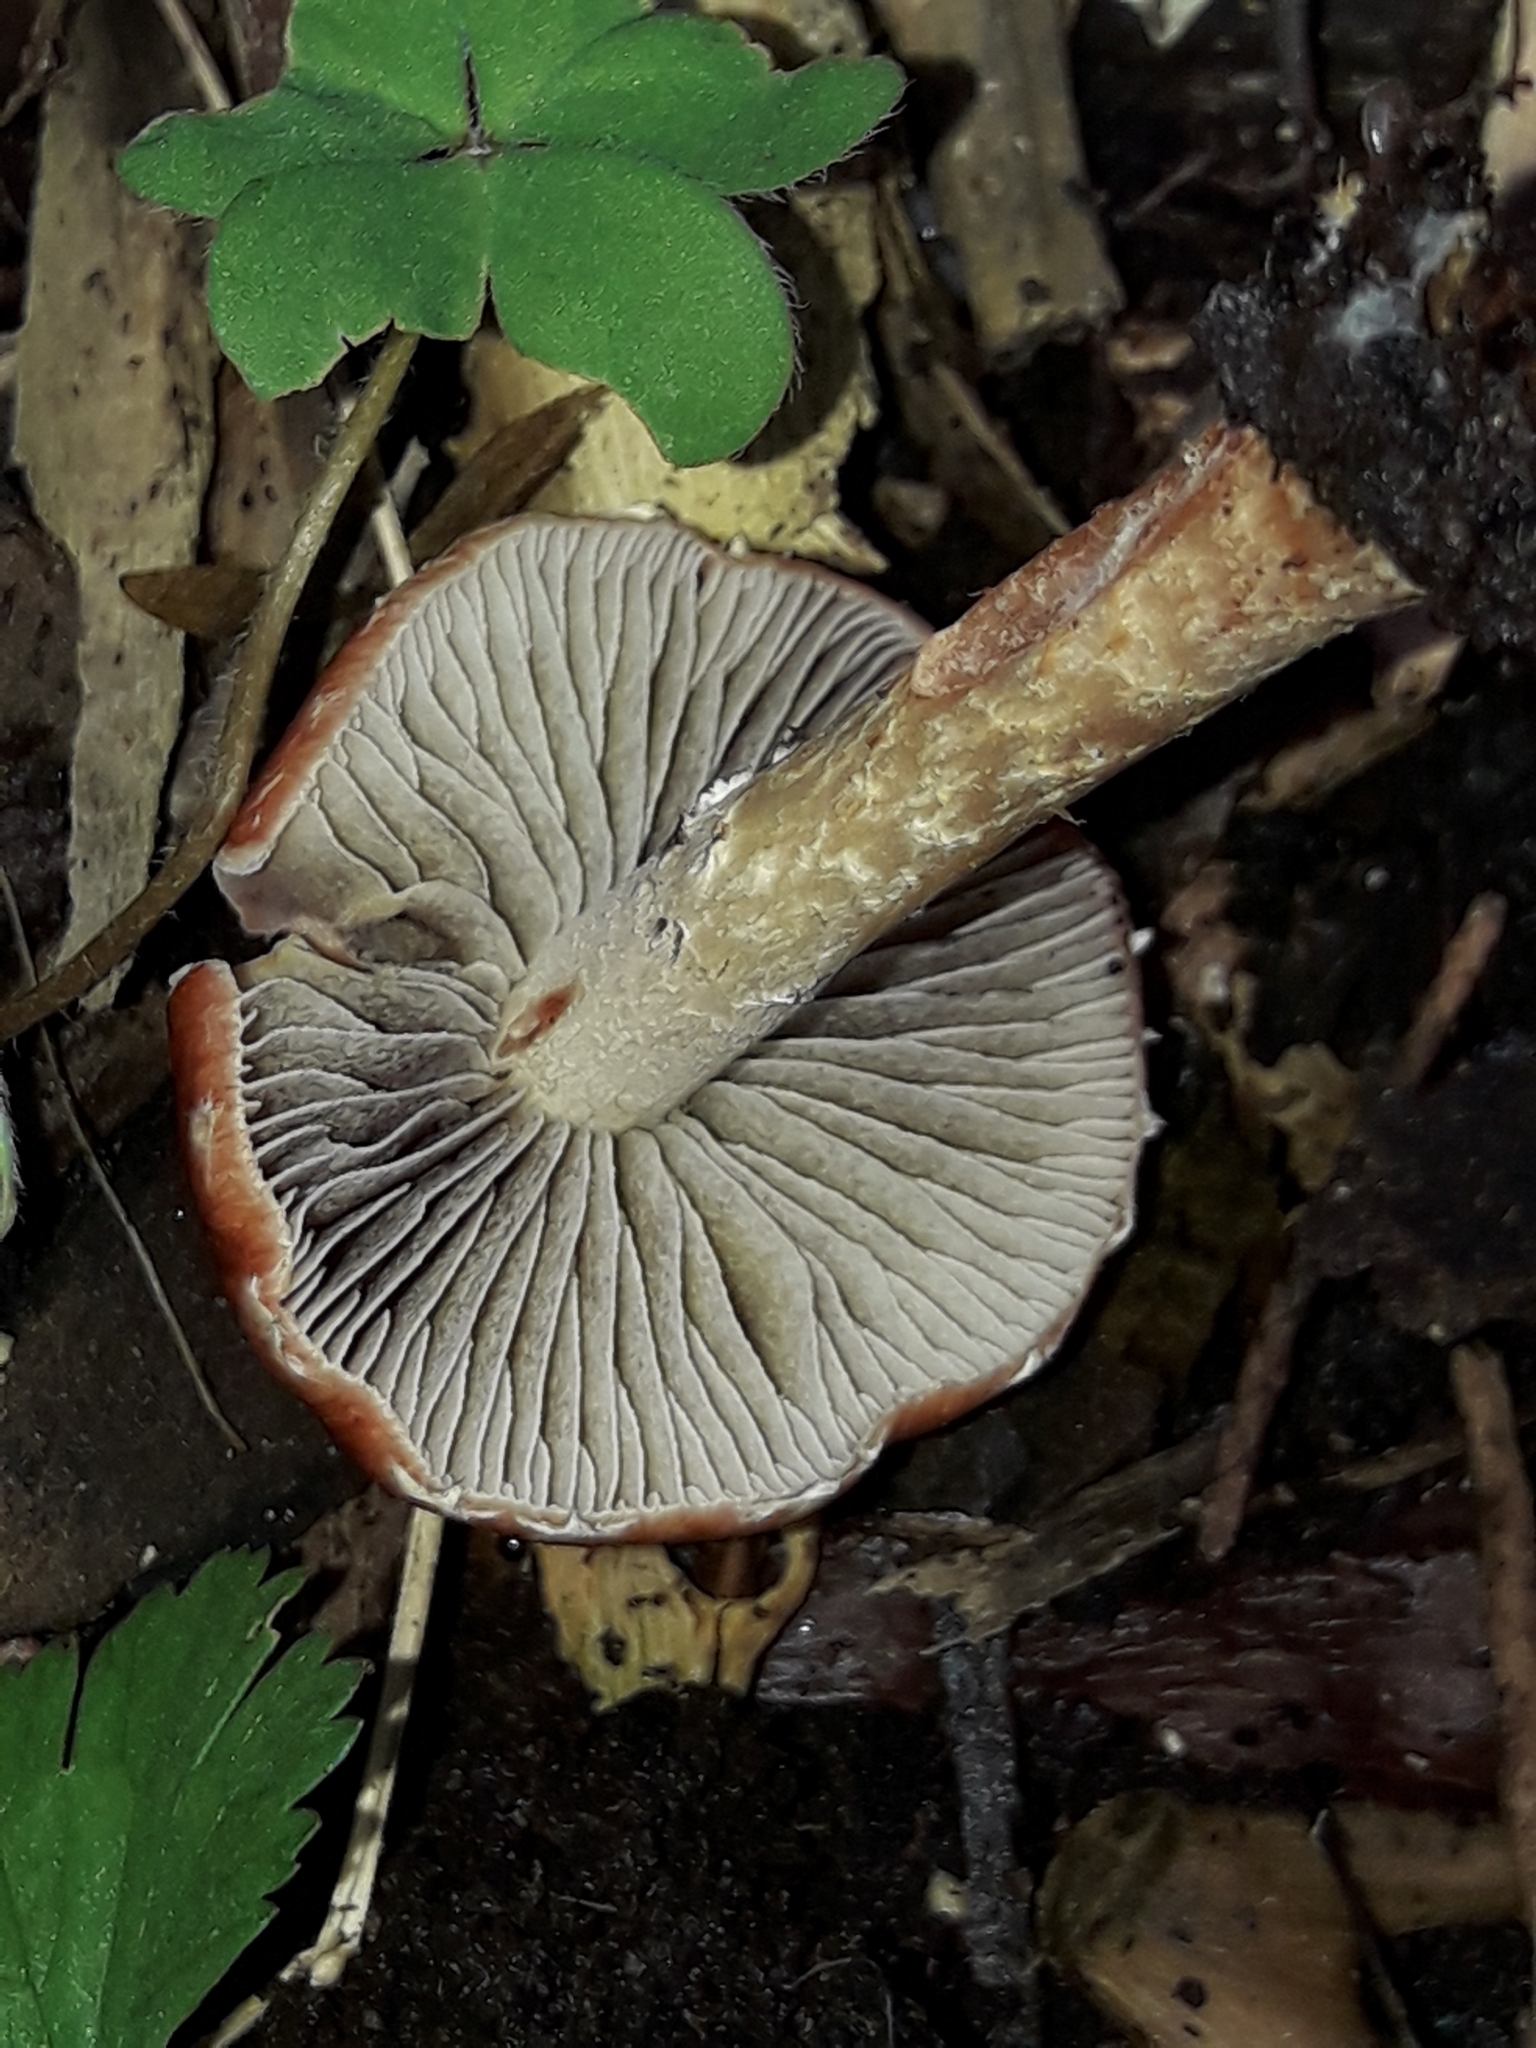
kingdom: Fungi
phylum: Basidiomycota
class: Agaricomycetes
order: Agaricales
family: Strophariaceae
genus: Leratiomyces
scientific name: Leratiomyces ceres
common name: Redlead roundhead
